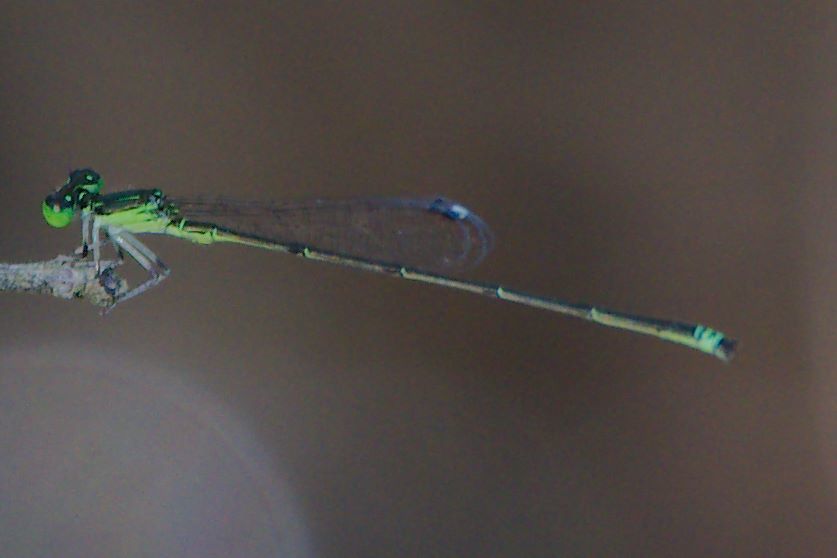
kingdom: Animalia
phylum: Arthropoda
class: Insecta
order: Odonata
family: Coenagrionidae
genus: Ischnura
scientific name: Ischnura prognata
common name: Furtive forktail
